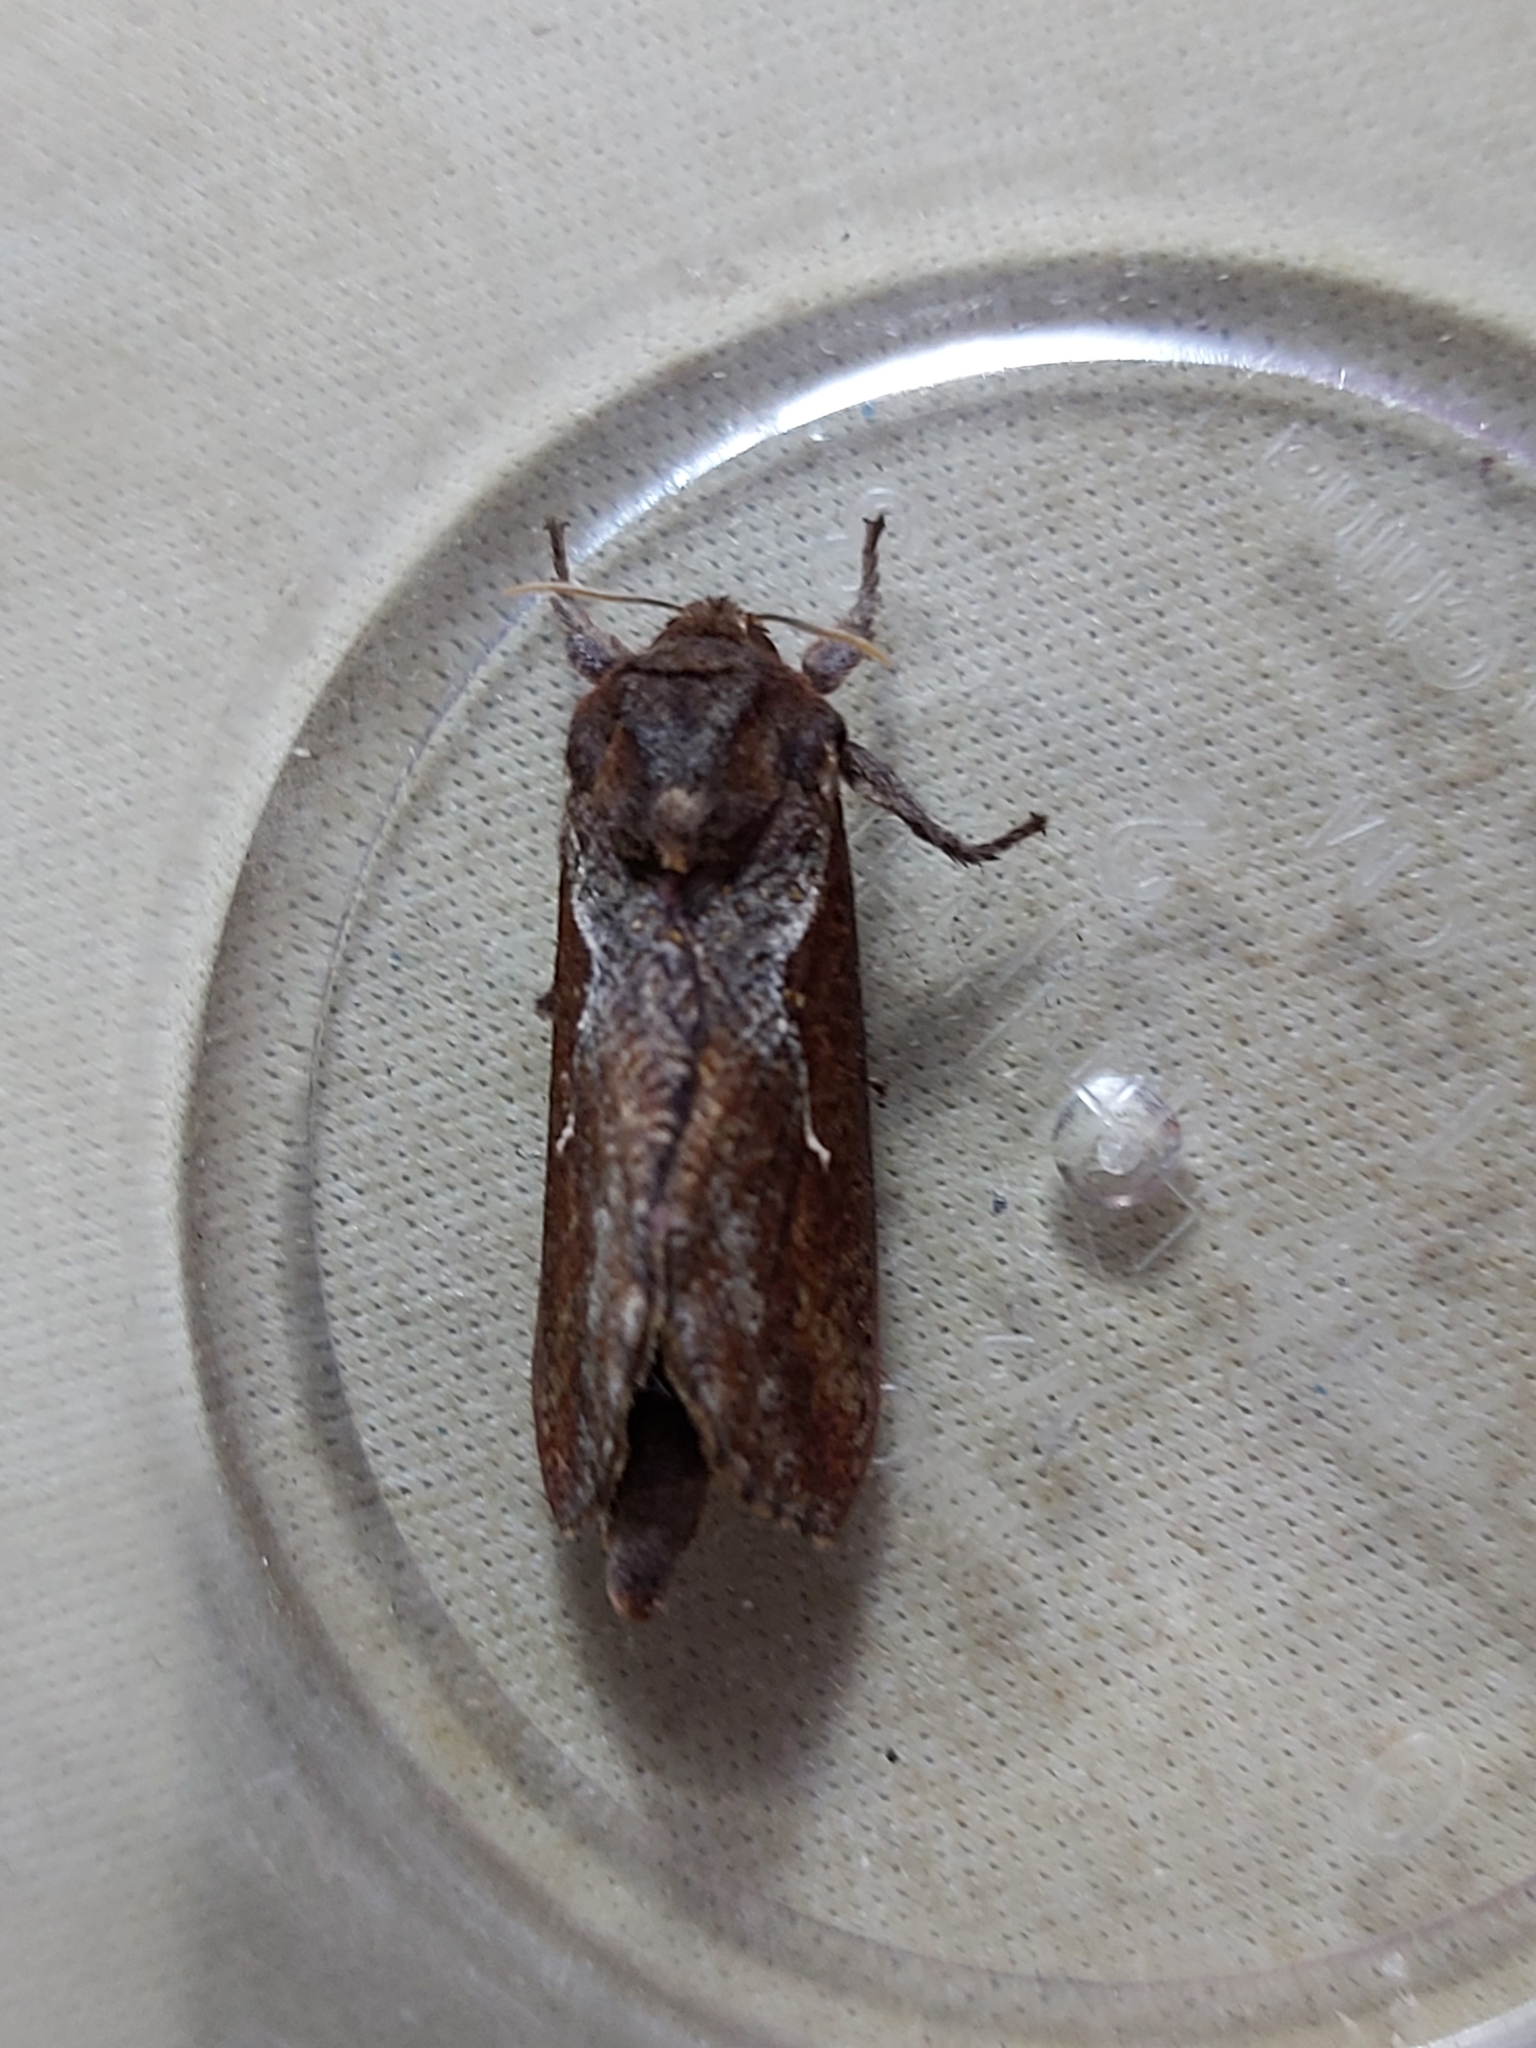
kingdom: Animalia
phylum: Arthropoda
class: Insecta
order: Lepidoptera
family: Hepialidae
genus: Elhamma
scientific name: Elhamma australasiae
